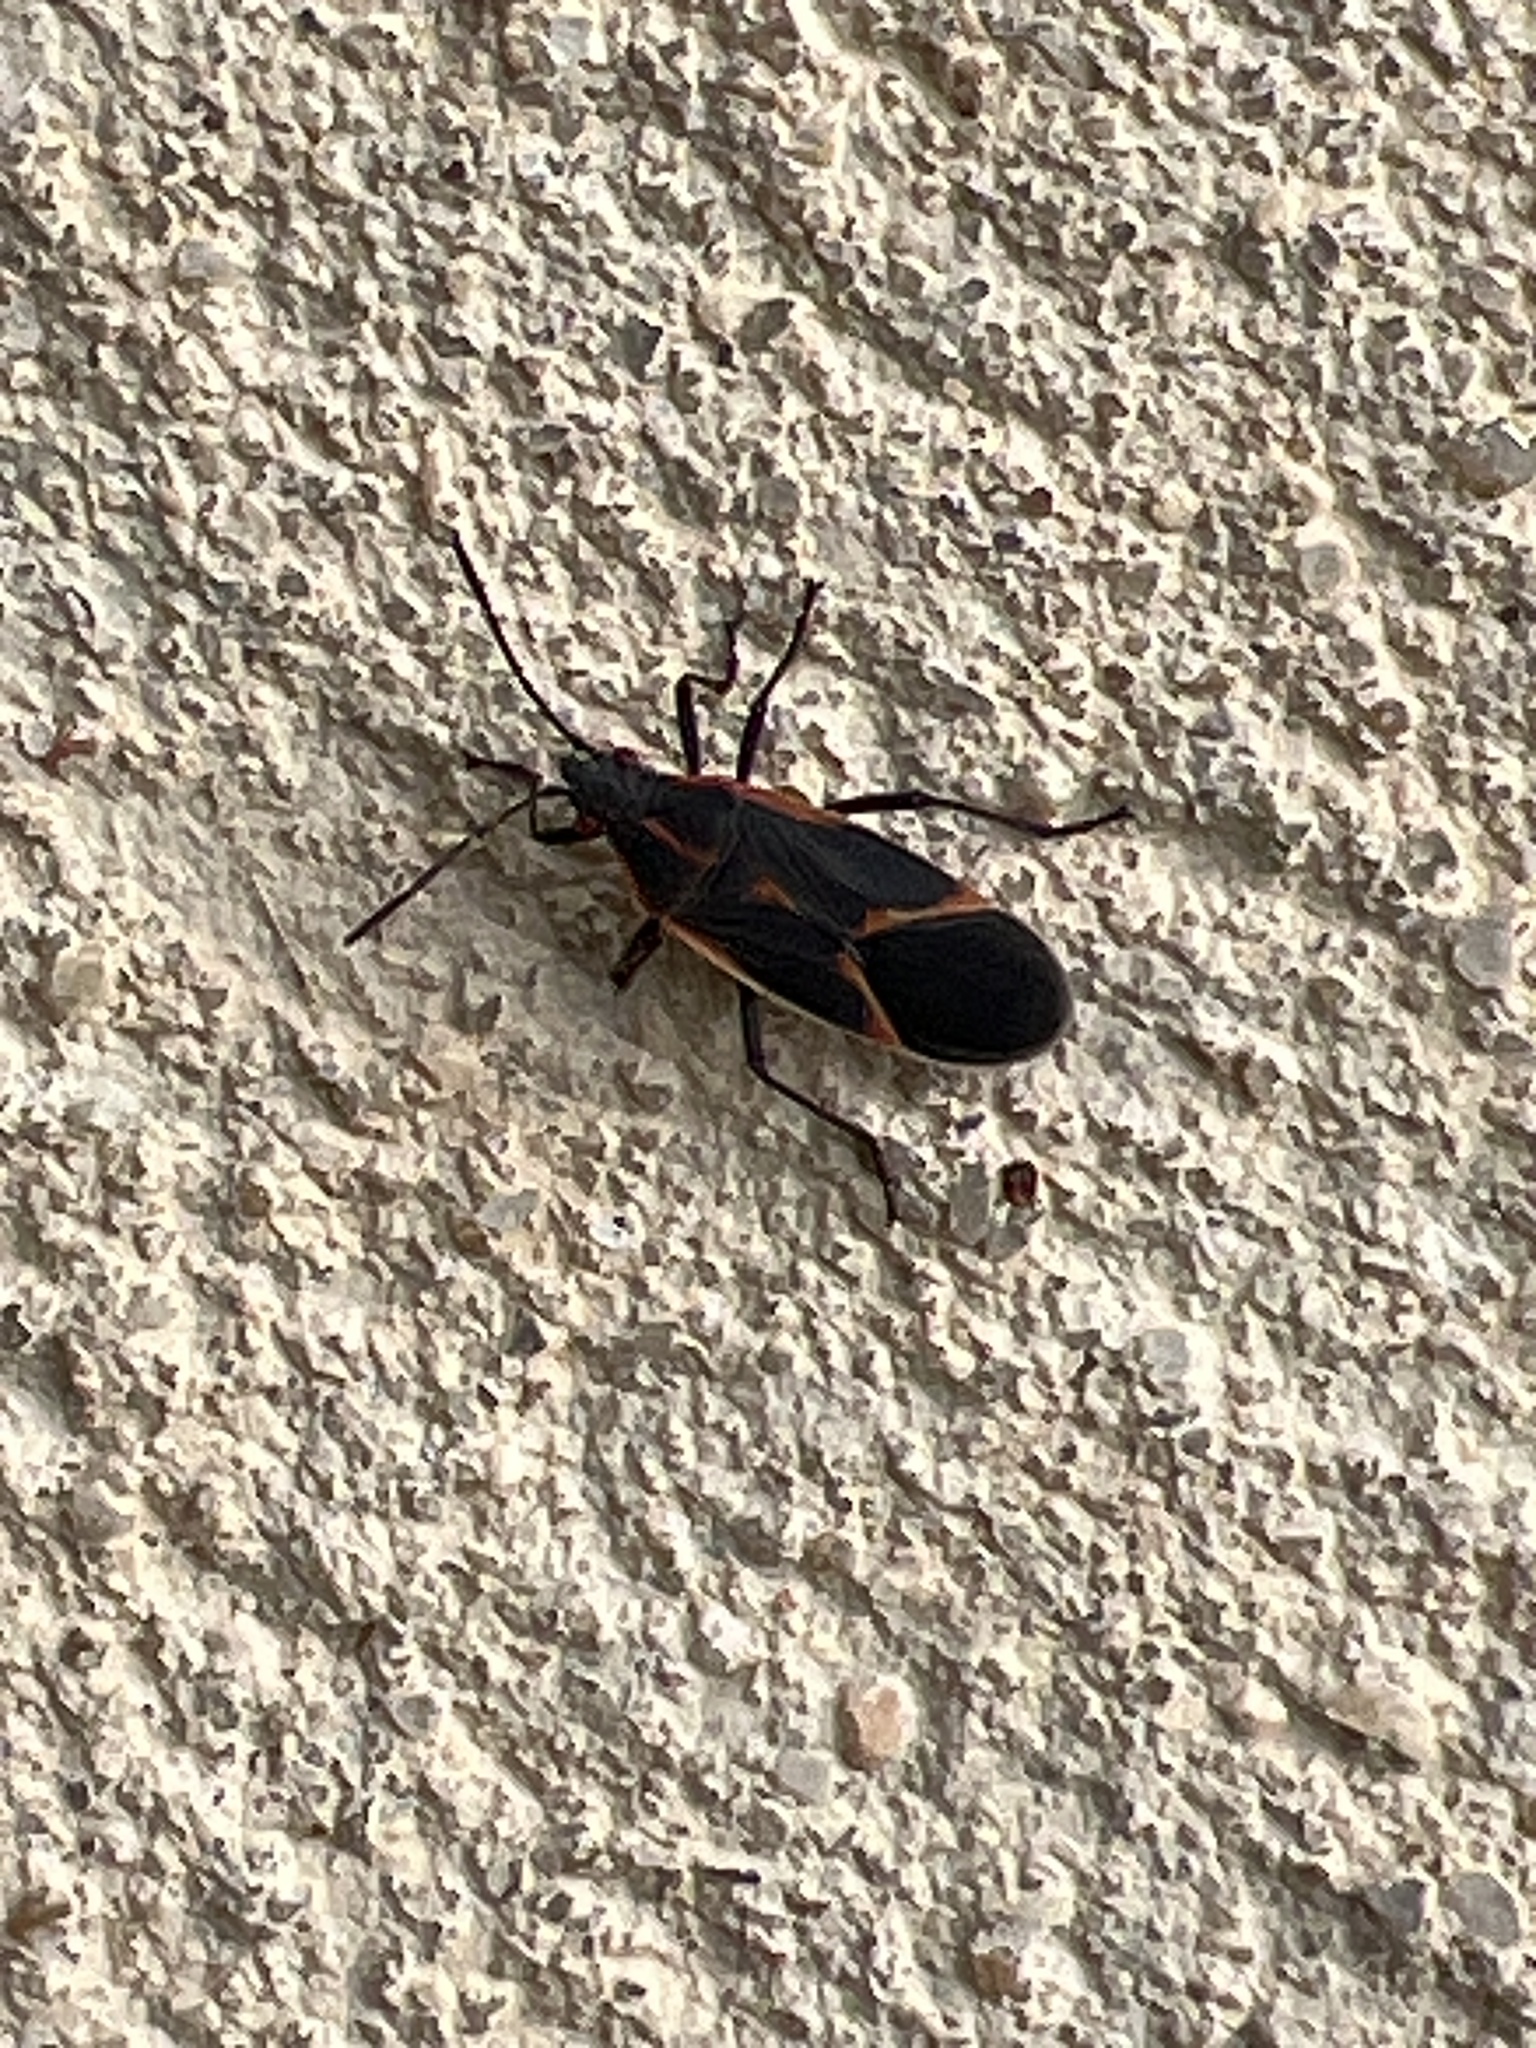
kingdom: Animalia
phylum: Arthropoda
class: Insecta
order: Hemiptera
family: Rhopalidae
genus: Boisea
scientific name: Boisea trivittata
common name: Boxelder bug
